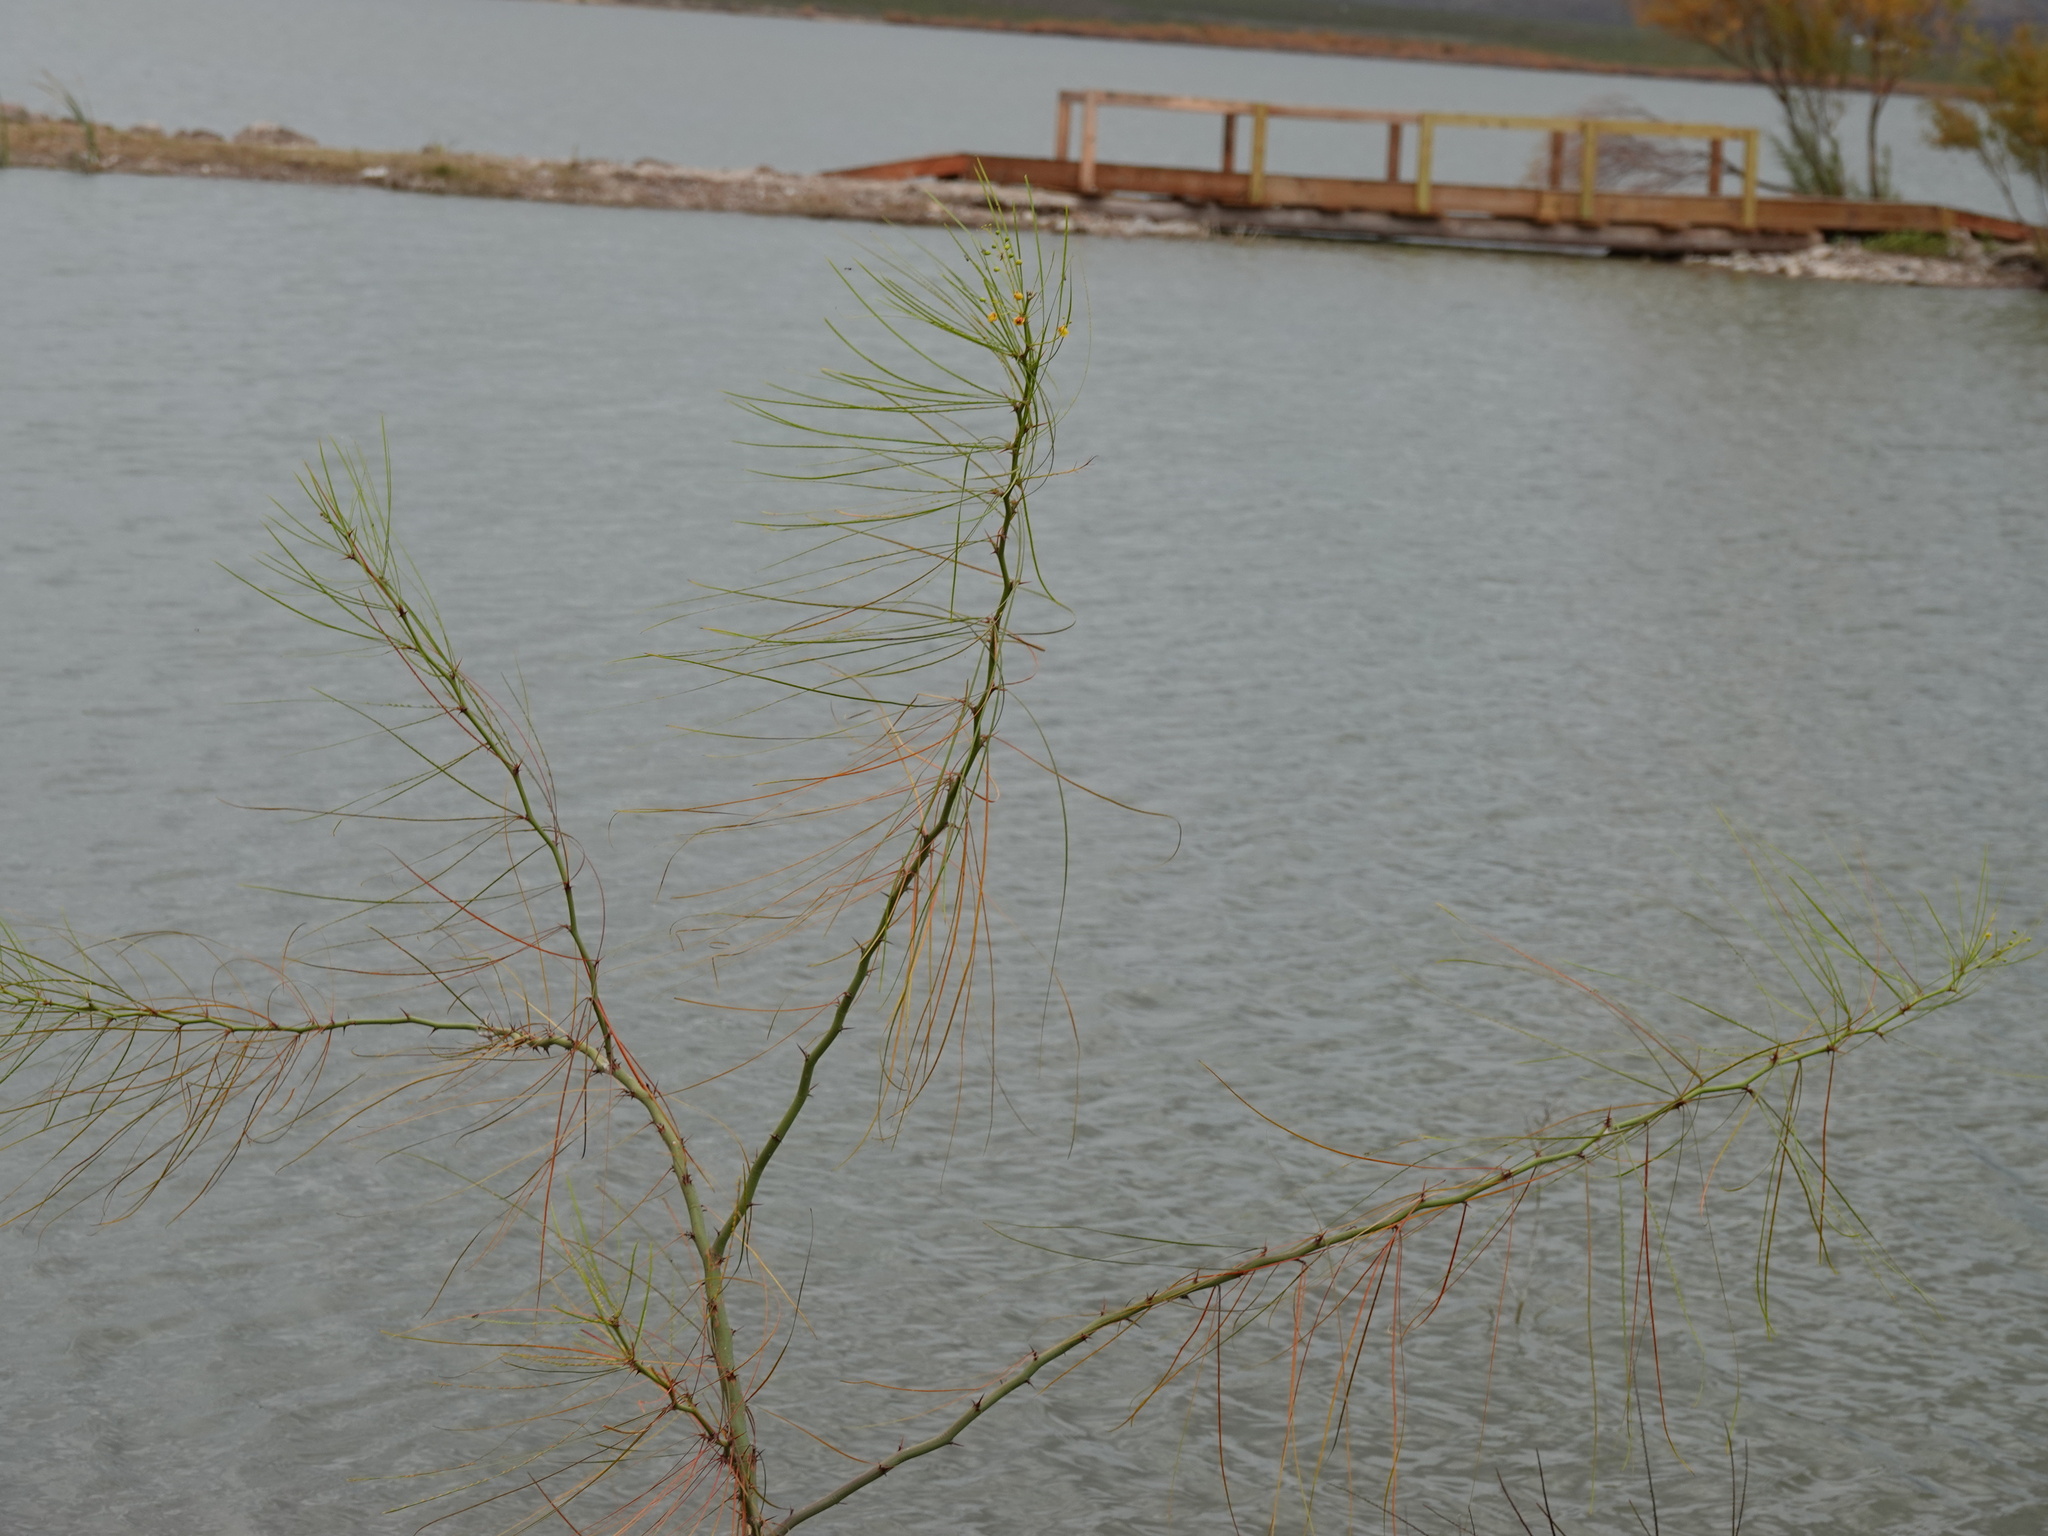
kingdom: Plantae
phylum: Tracheophyta
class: Magnoliopsida
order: Fabales
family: Fabaceae
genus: Parkinsonia
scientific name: Parkinsonia aculeata
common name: Jerusalem thorn
